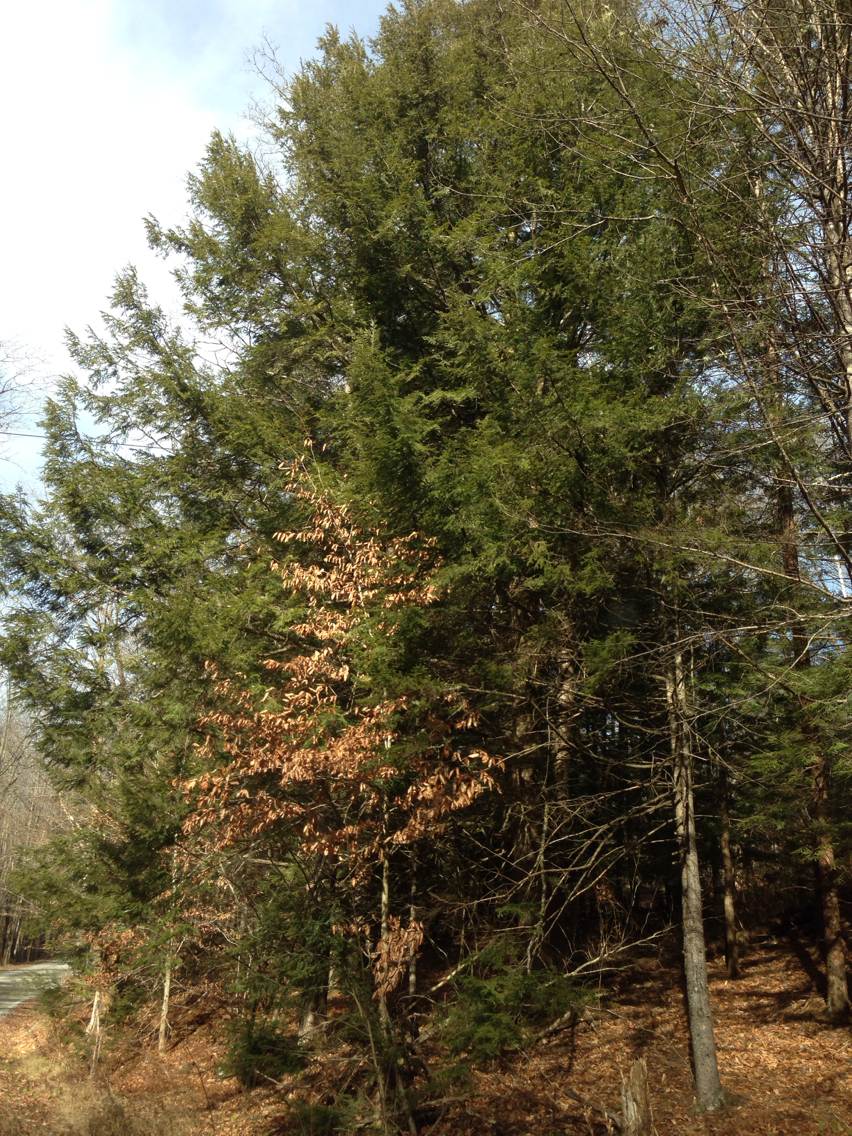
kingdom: Plantae
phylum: Tracheophyta
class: Pinopsida
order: Pinales
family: Pinaceae
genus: Tsuga
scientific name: Tsuga canadensis
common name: Eastern hemlock
